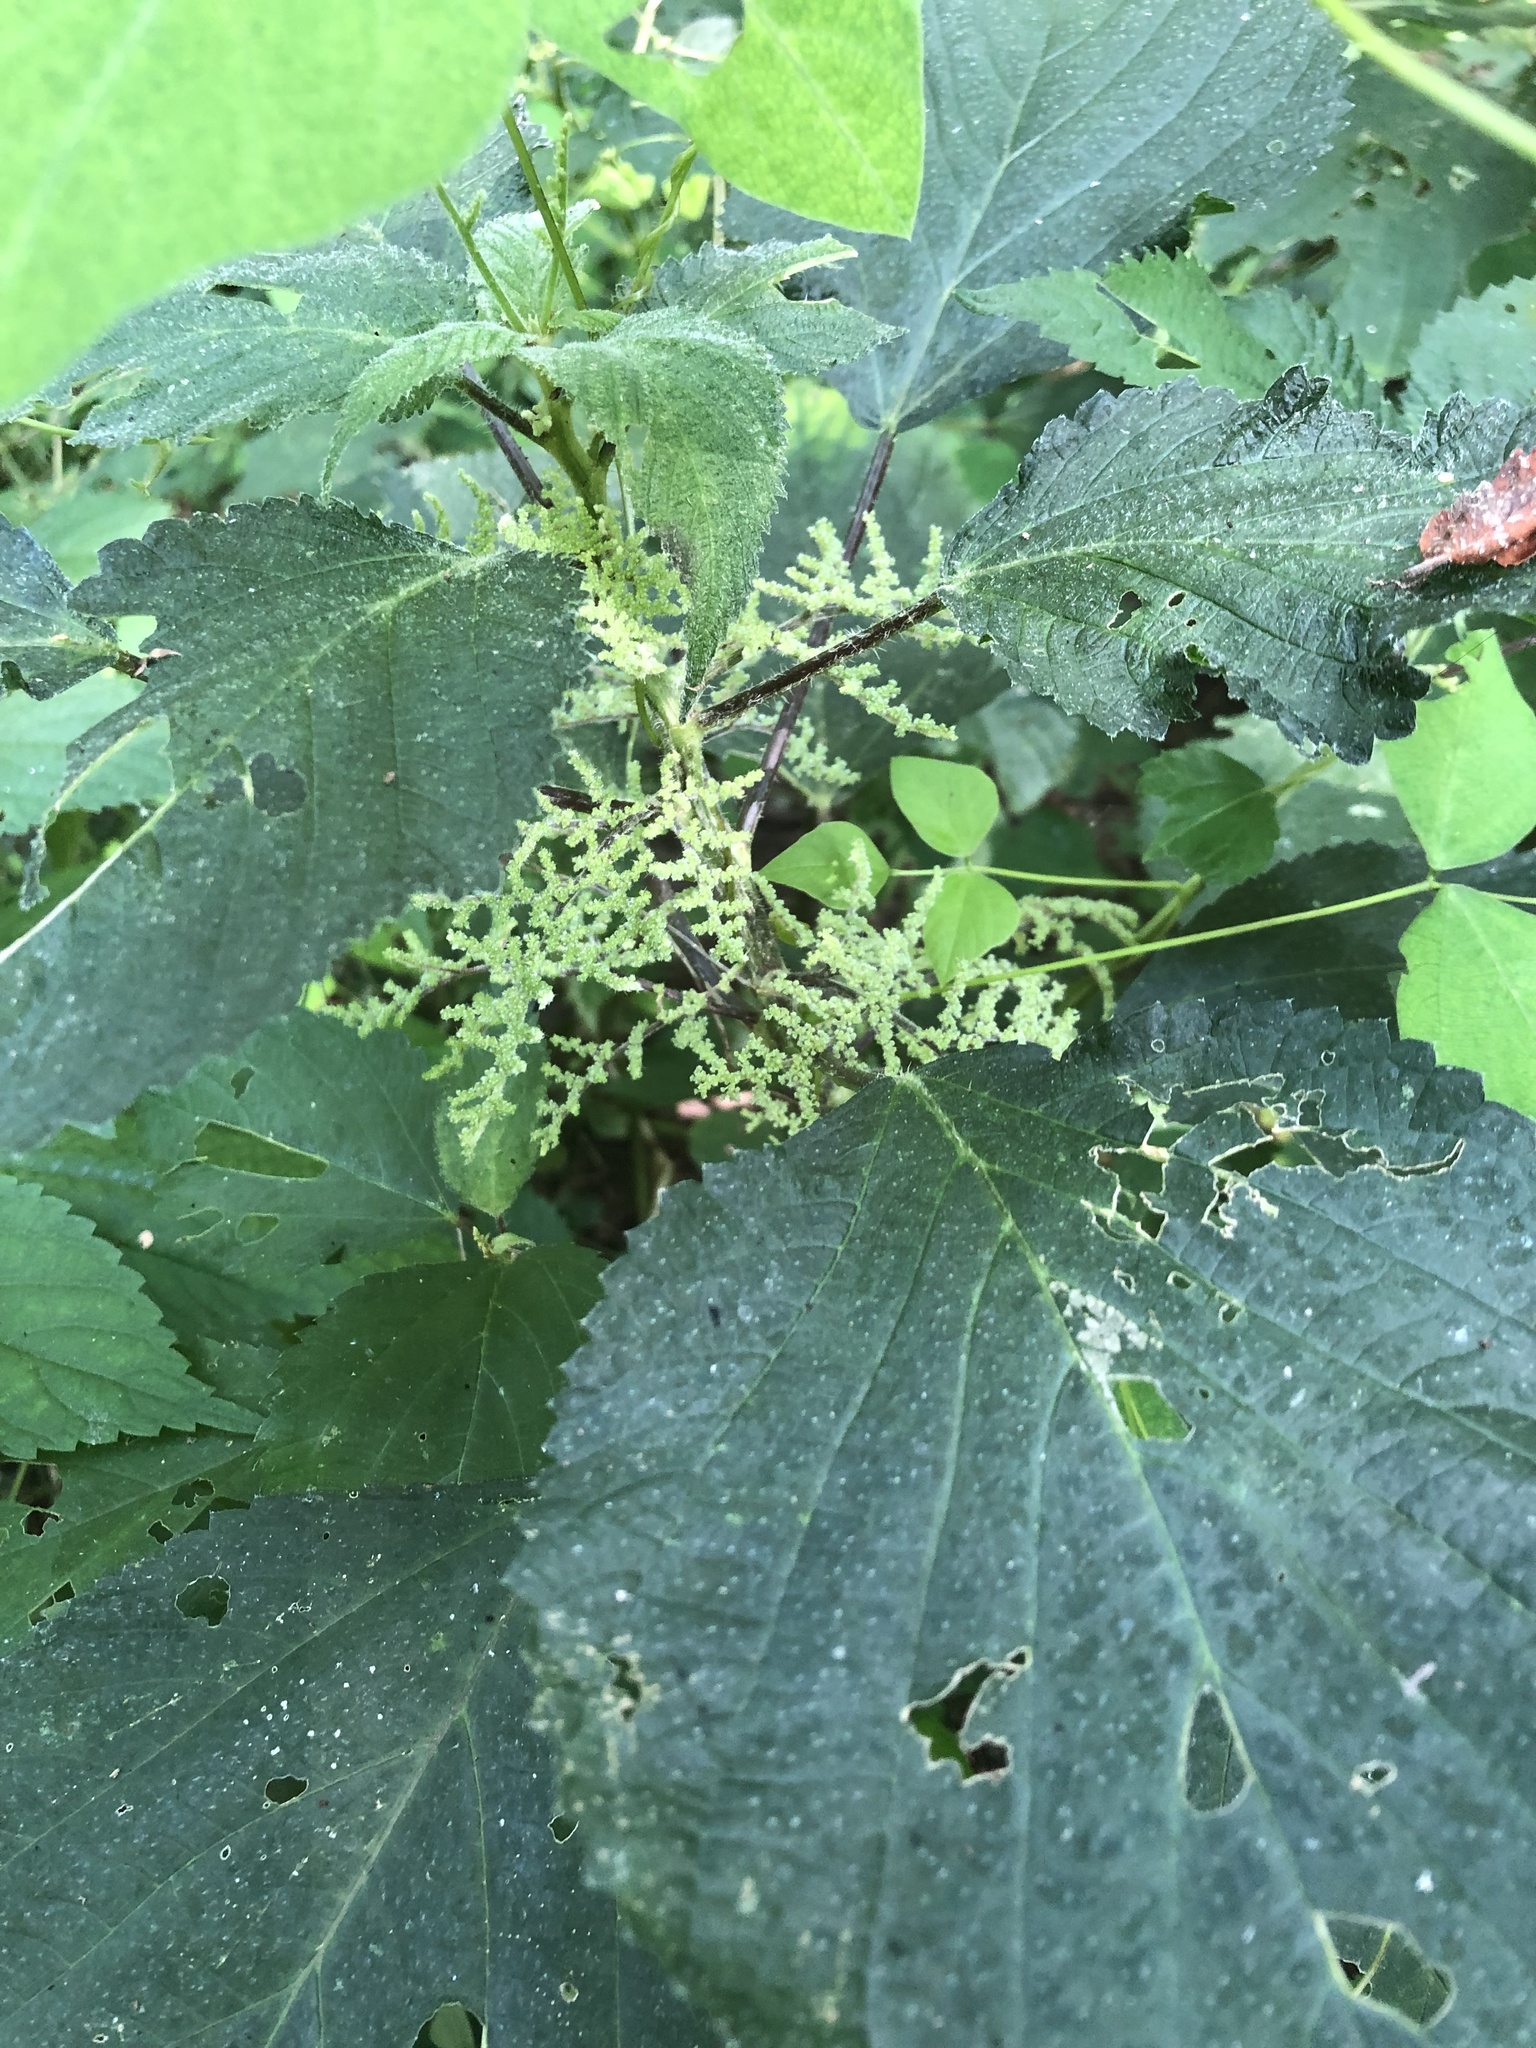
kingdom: Plantae
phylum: Tracheophyta
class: Magnoliopsida
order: Rosales
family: Urticaceae
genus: Laportea
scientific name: Laportea canadensis
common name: Canada nettle
